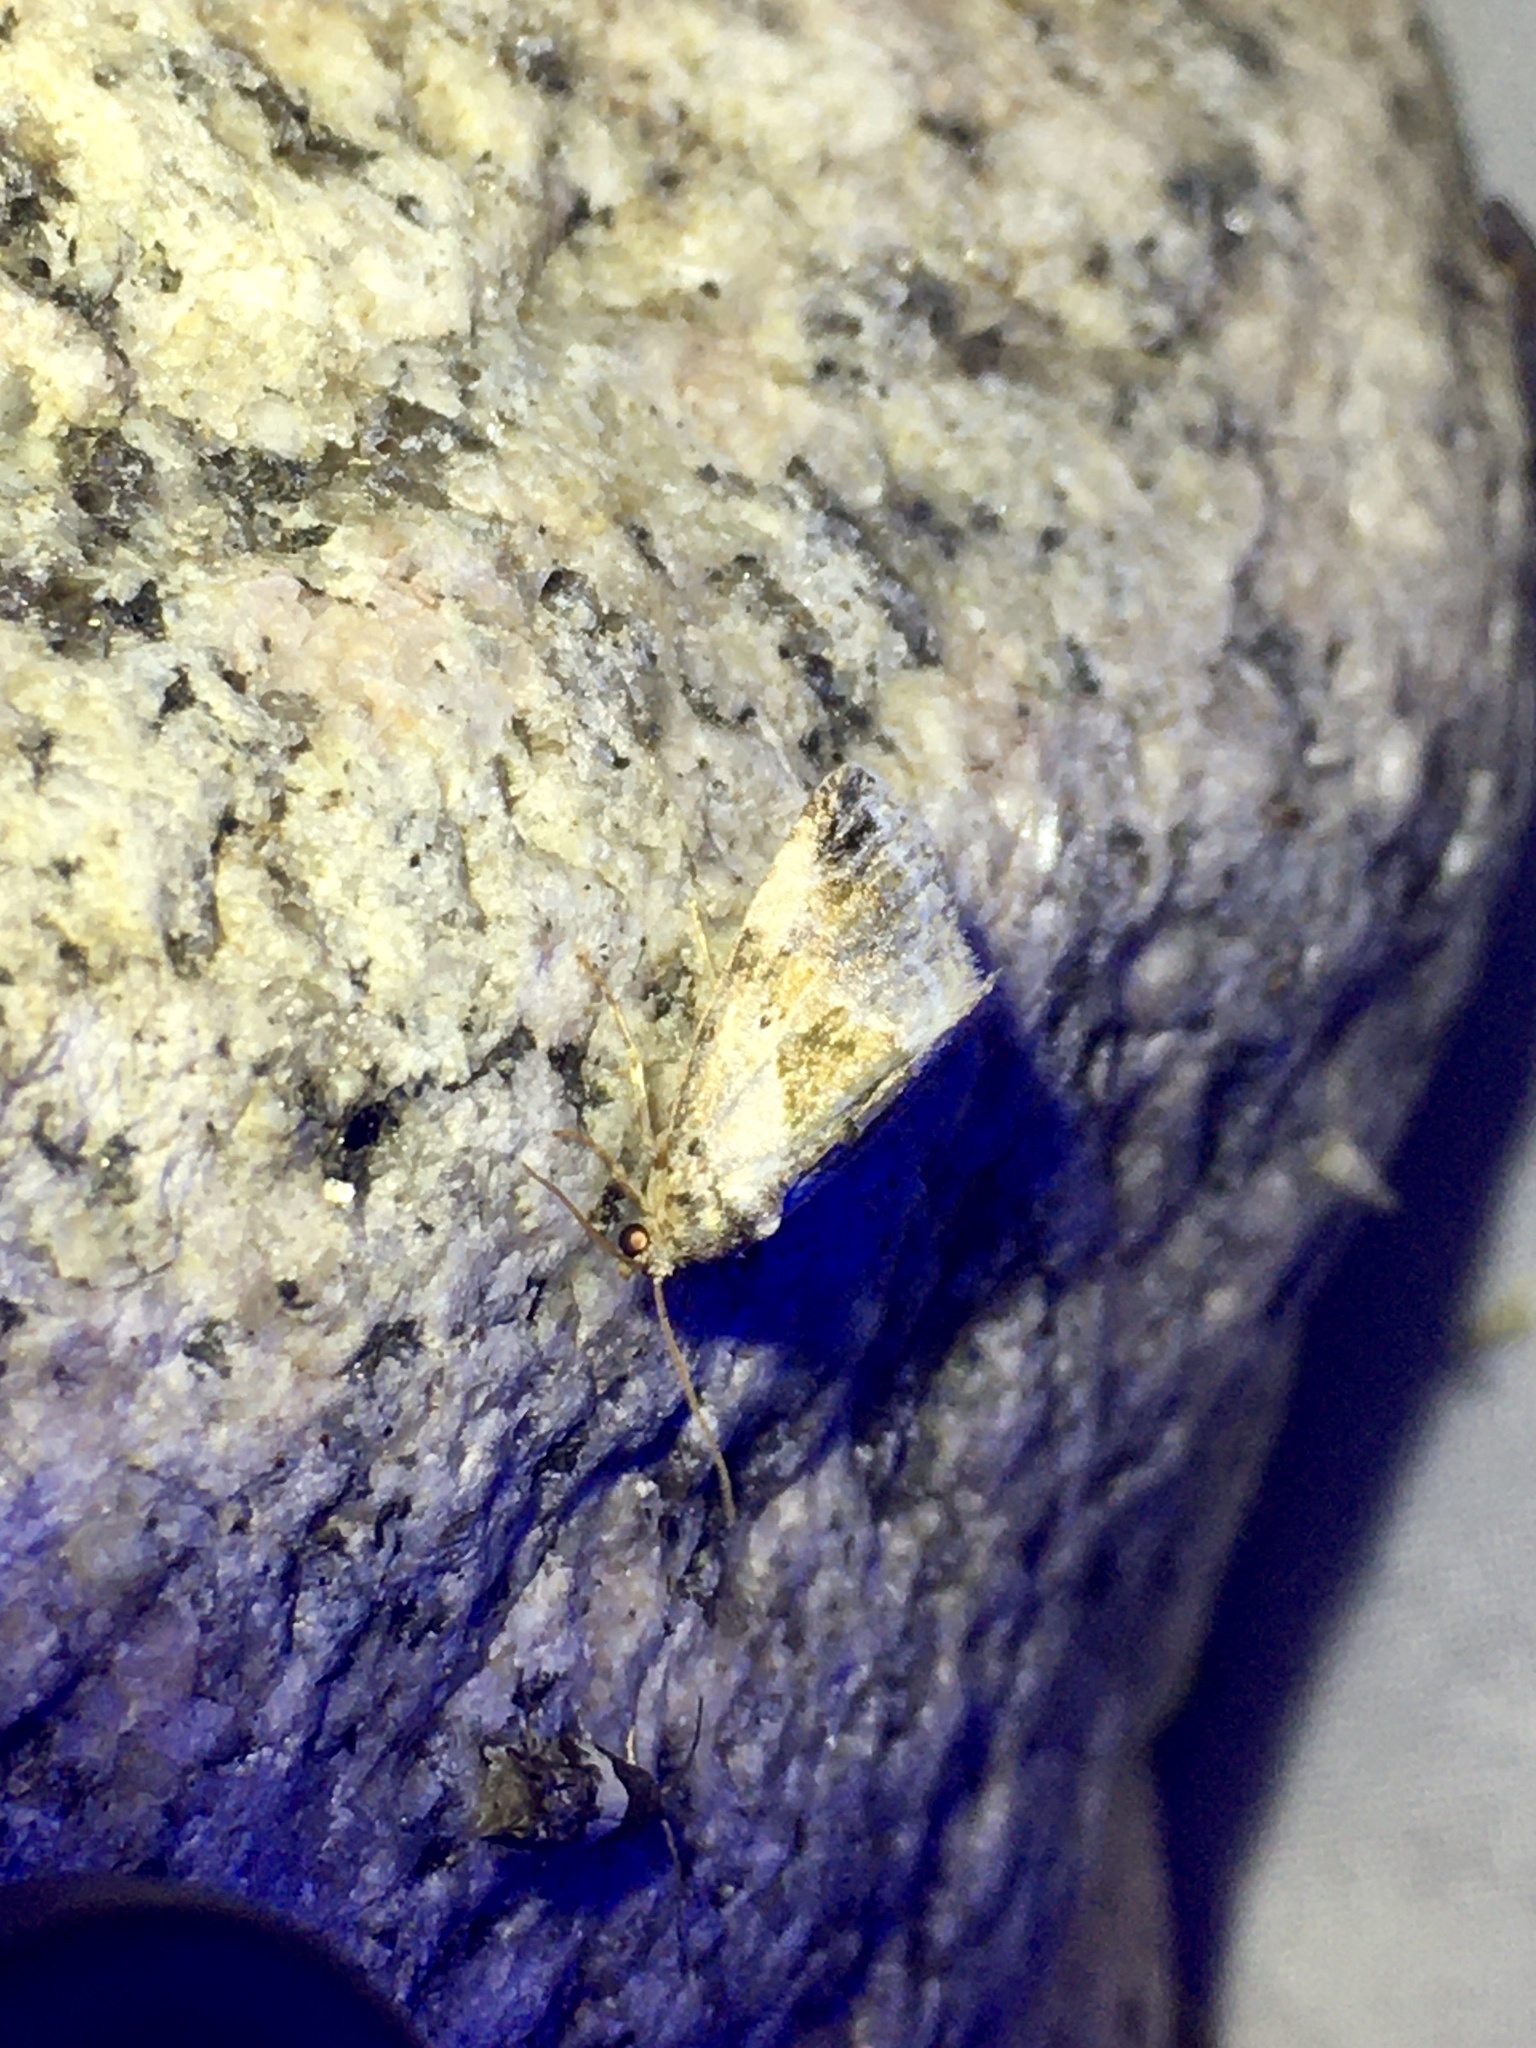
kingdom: Animalia
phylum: Arthropoda
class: Insecta
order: Lepidoptera
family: Noctuidae
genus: Maliattha
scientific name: Maliattha synochitis
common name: Black-dotted glyph
